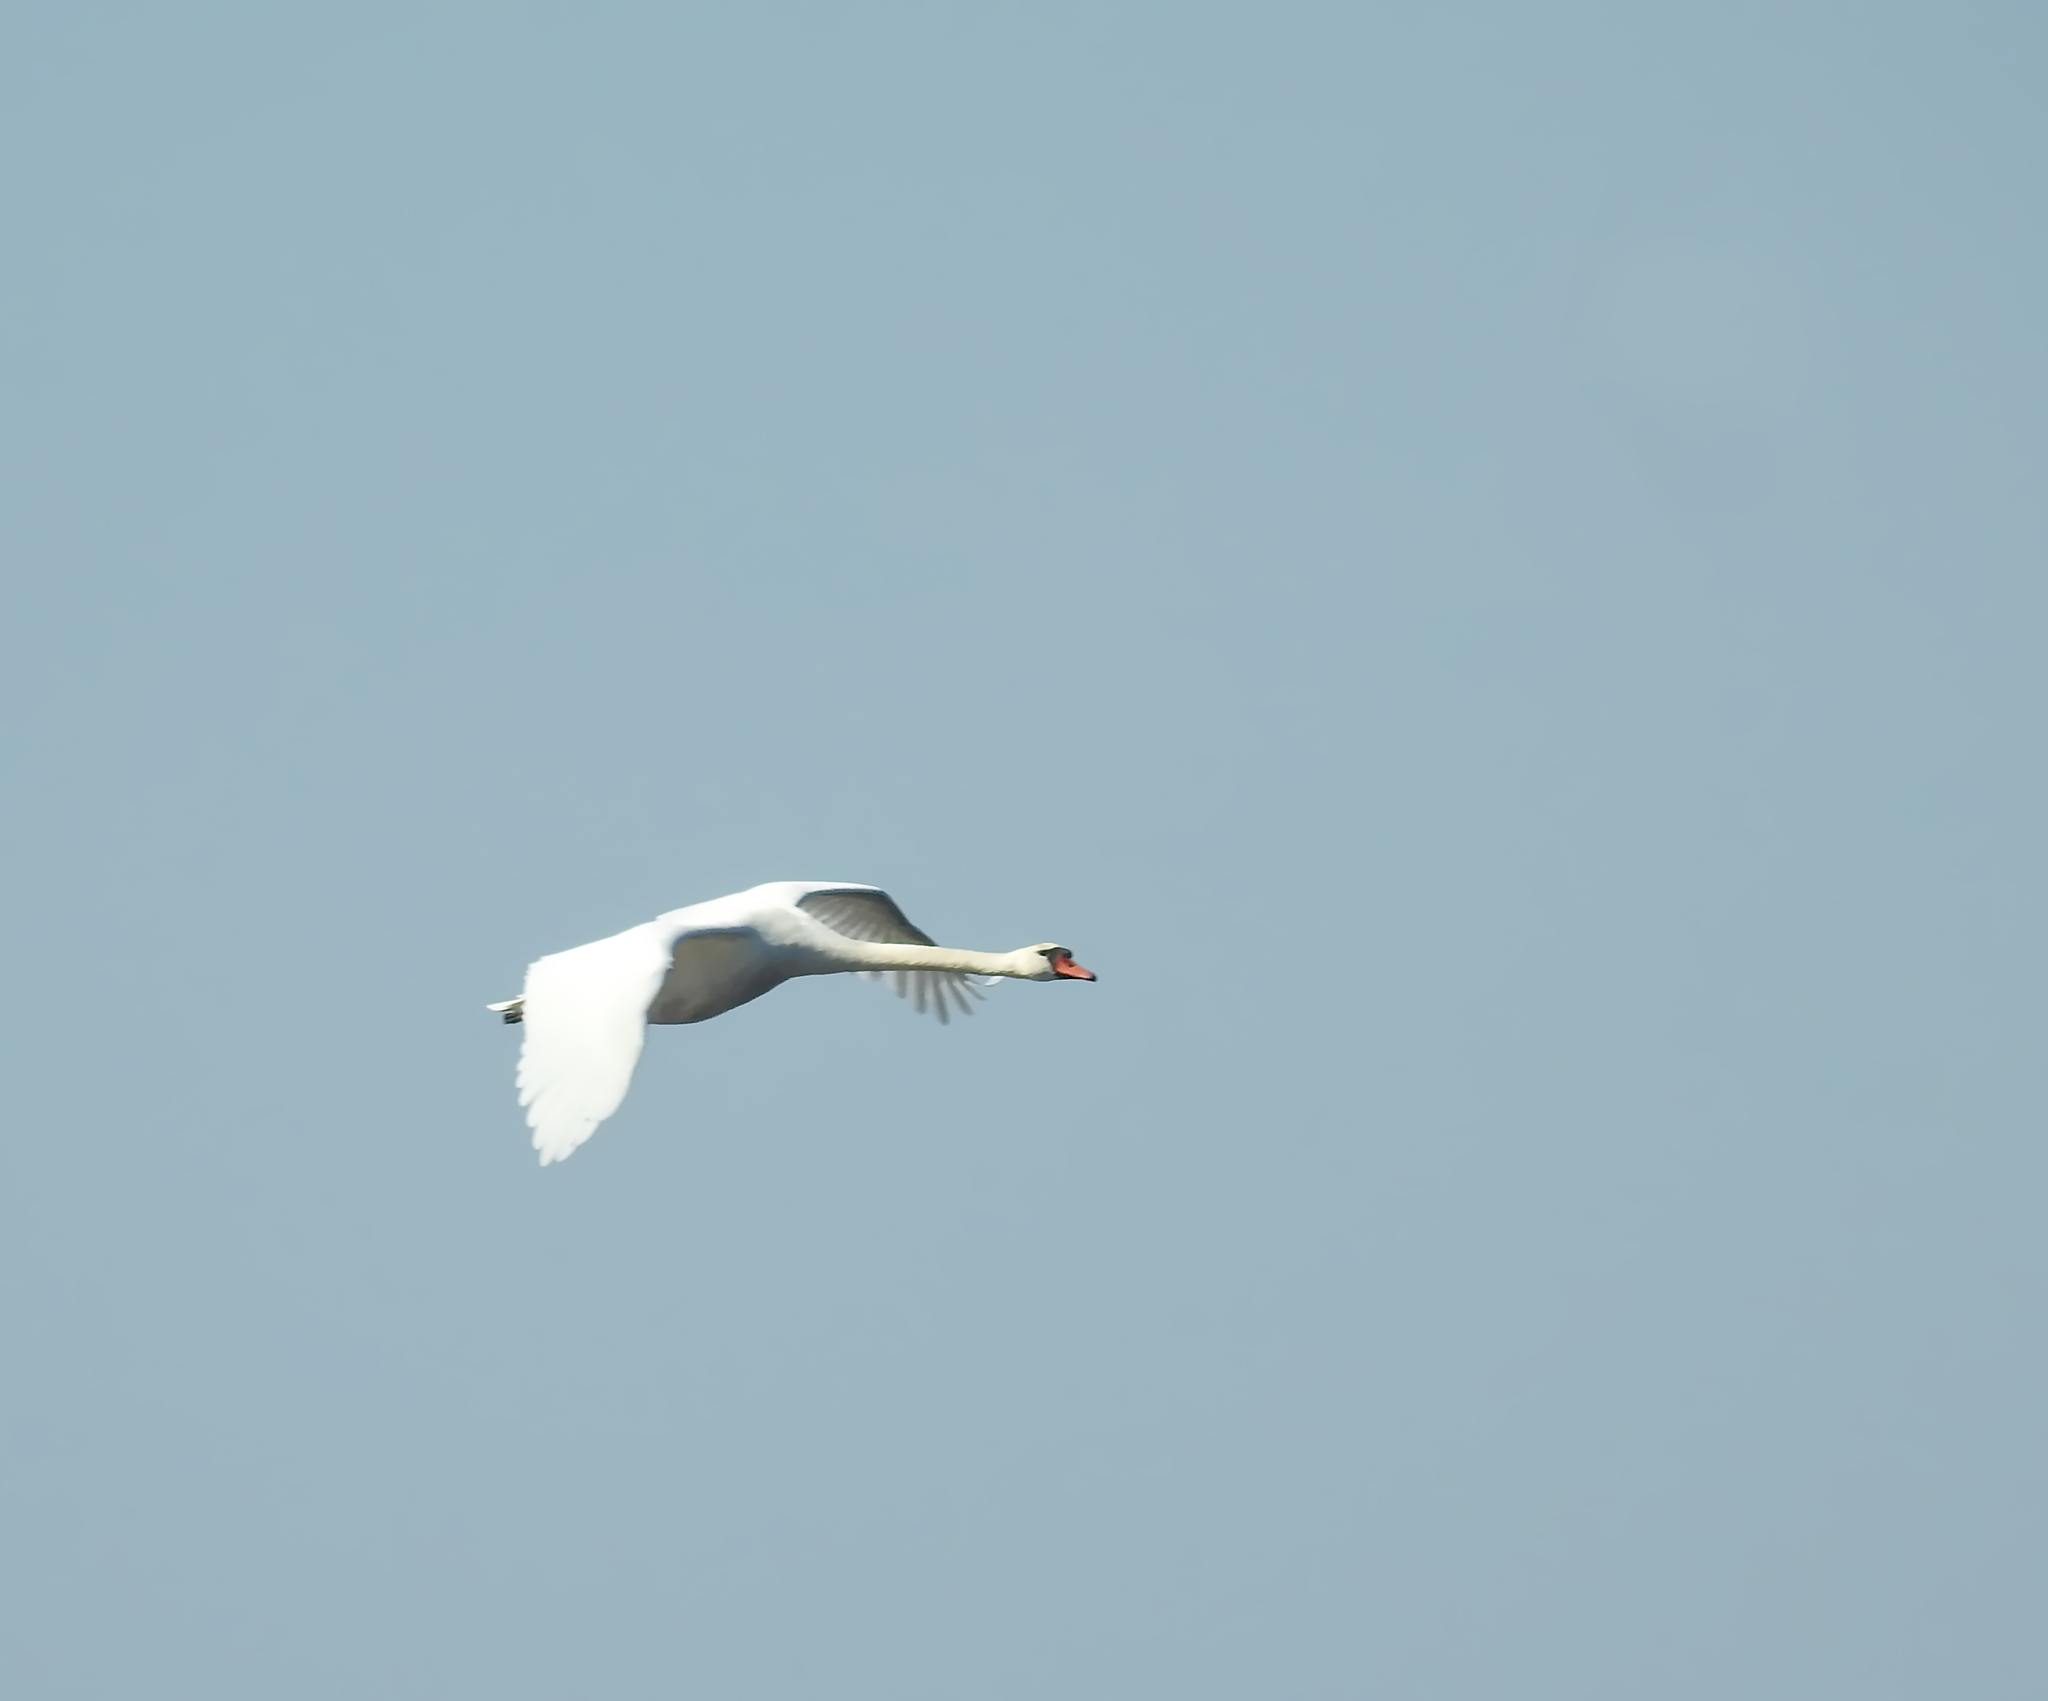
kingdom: Animalia
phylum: Chordata
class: Aves
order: Anseriformes
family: Anatidae
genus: Cygnus
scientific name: Cygnus olor
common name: Mute swan
